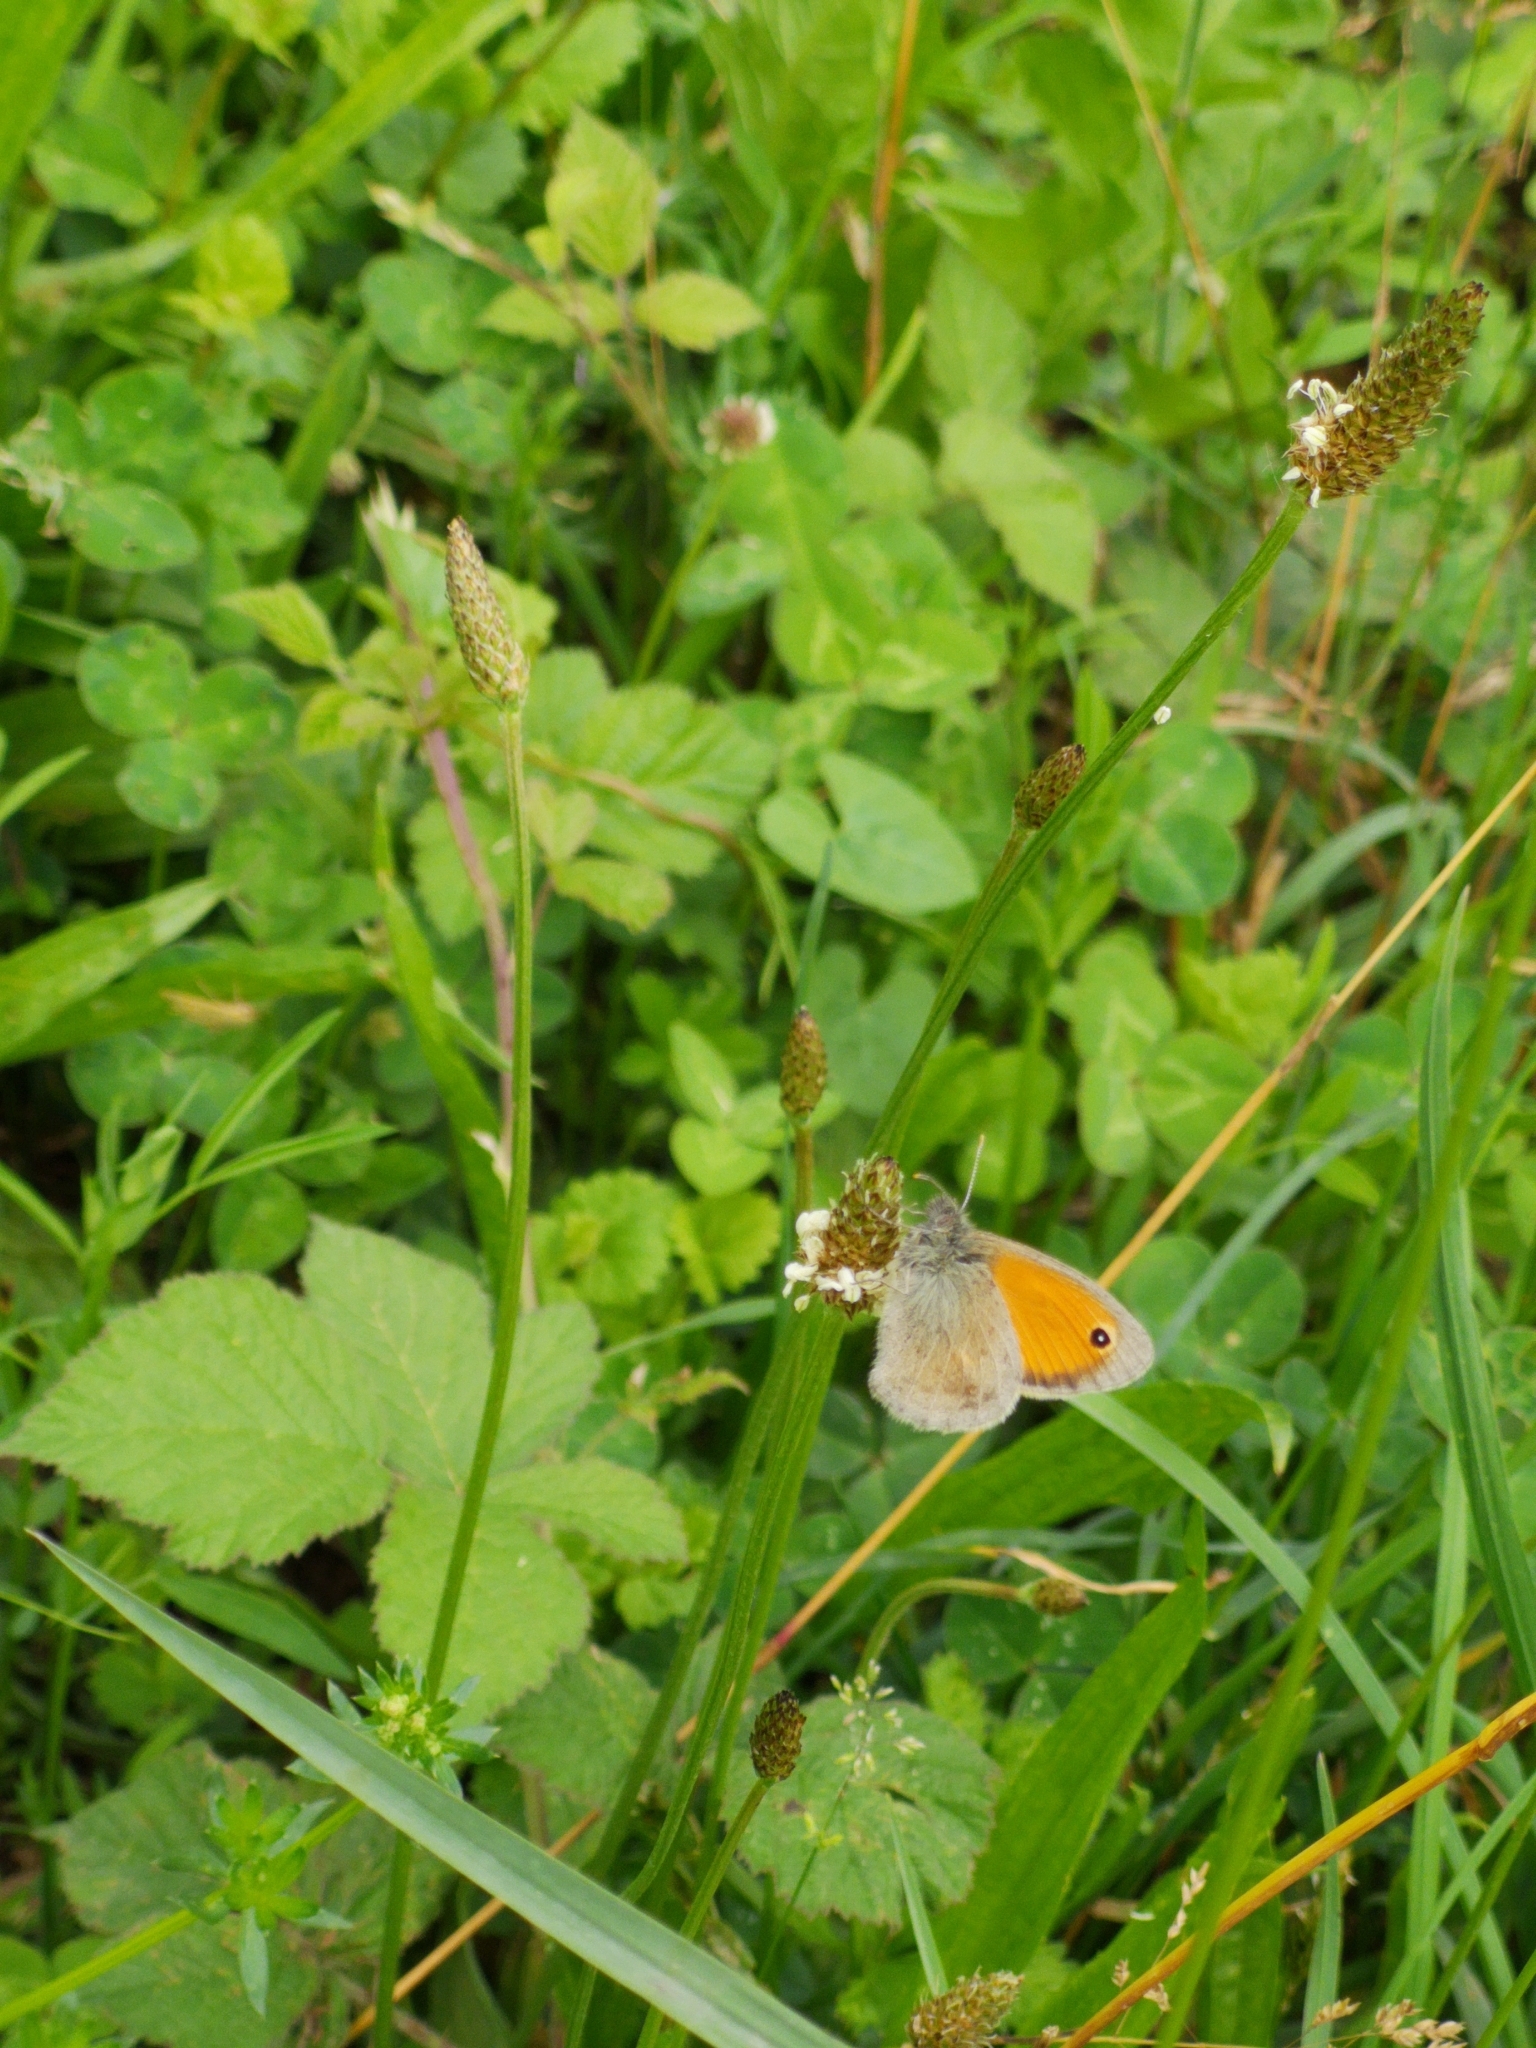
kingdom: Animalia
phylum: Arthropoda
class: Insecta
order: Lepidoptera
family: Nymphalidae
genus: Coenonympha
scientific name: Coenonympha pamphilus
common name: Small heath
